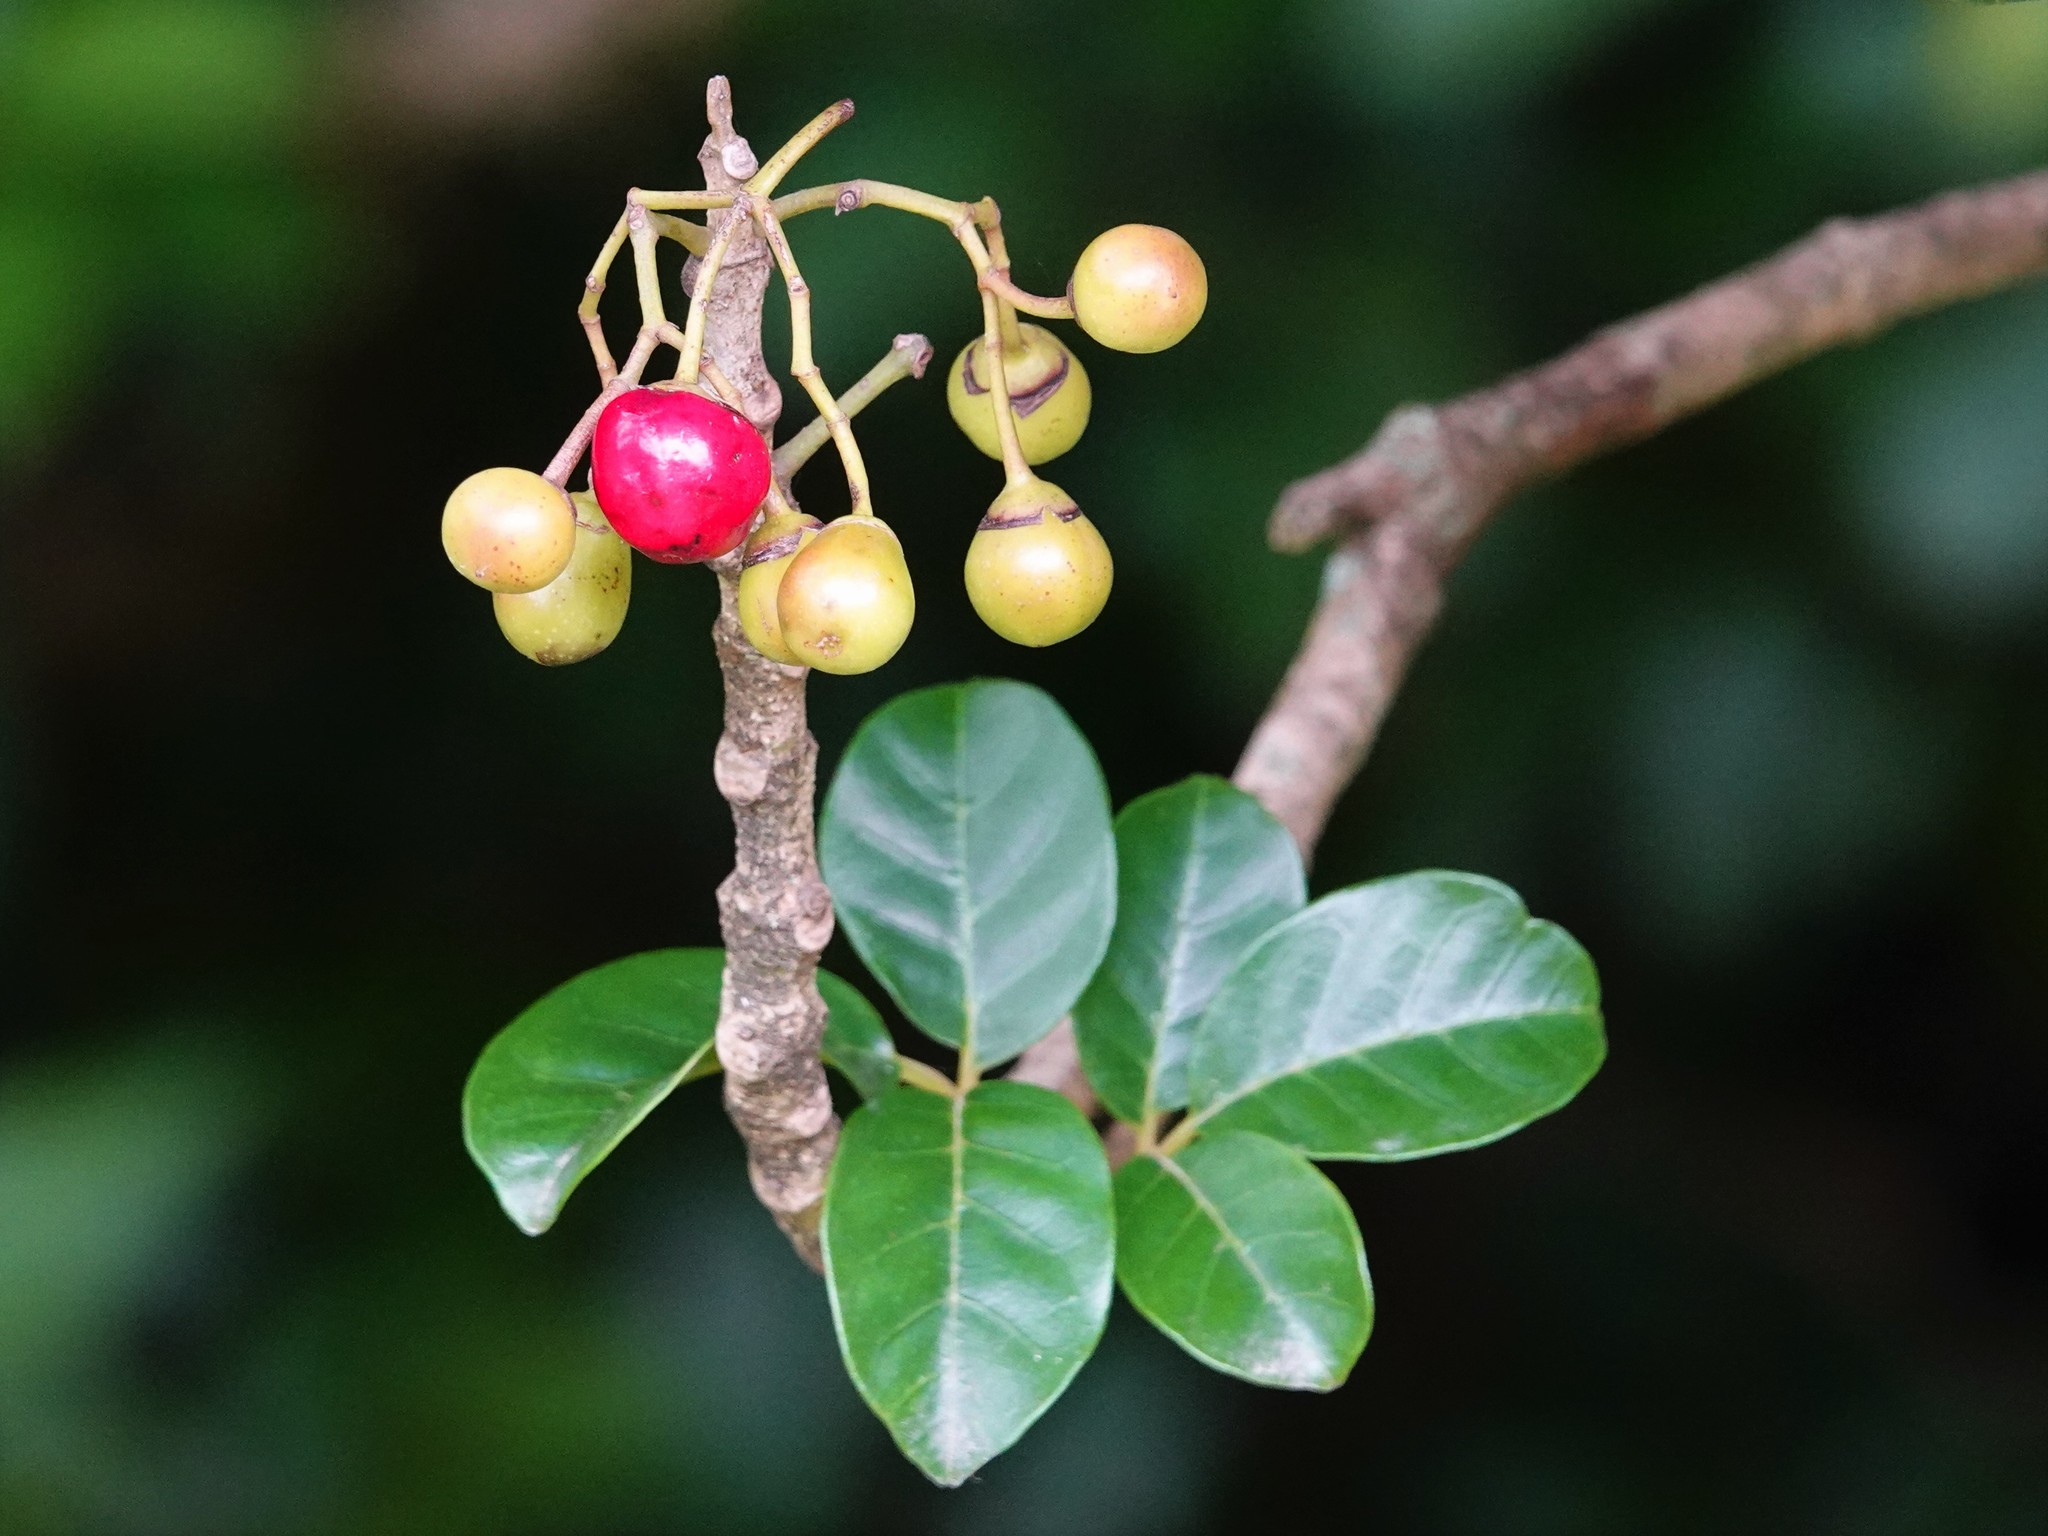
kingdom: Plantae
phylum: Tracheophyta
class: Magnoliopsida
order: Lamiales
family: Lamiaceae
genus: Vitex
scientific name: Vitex lucens
